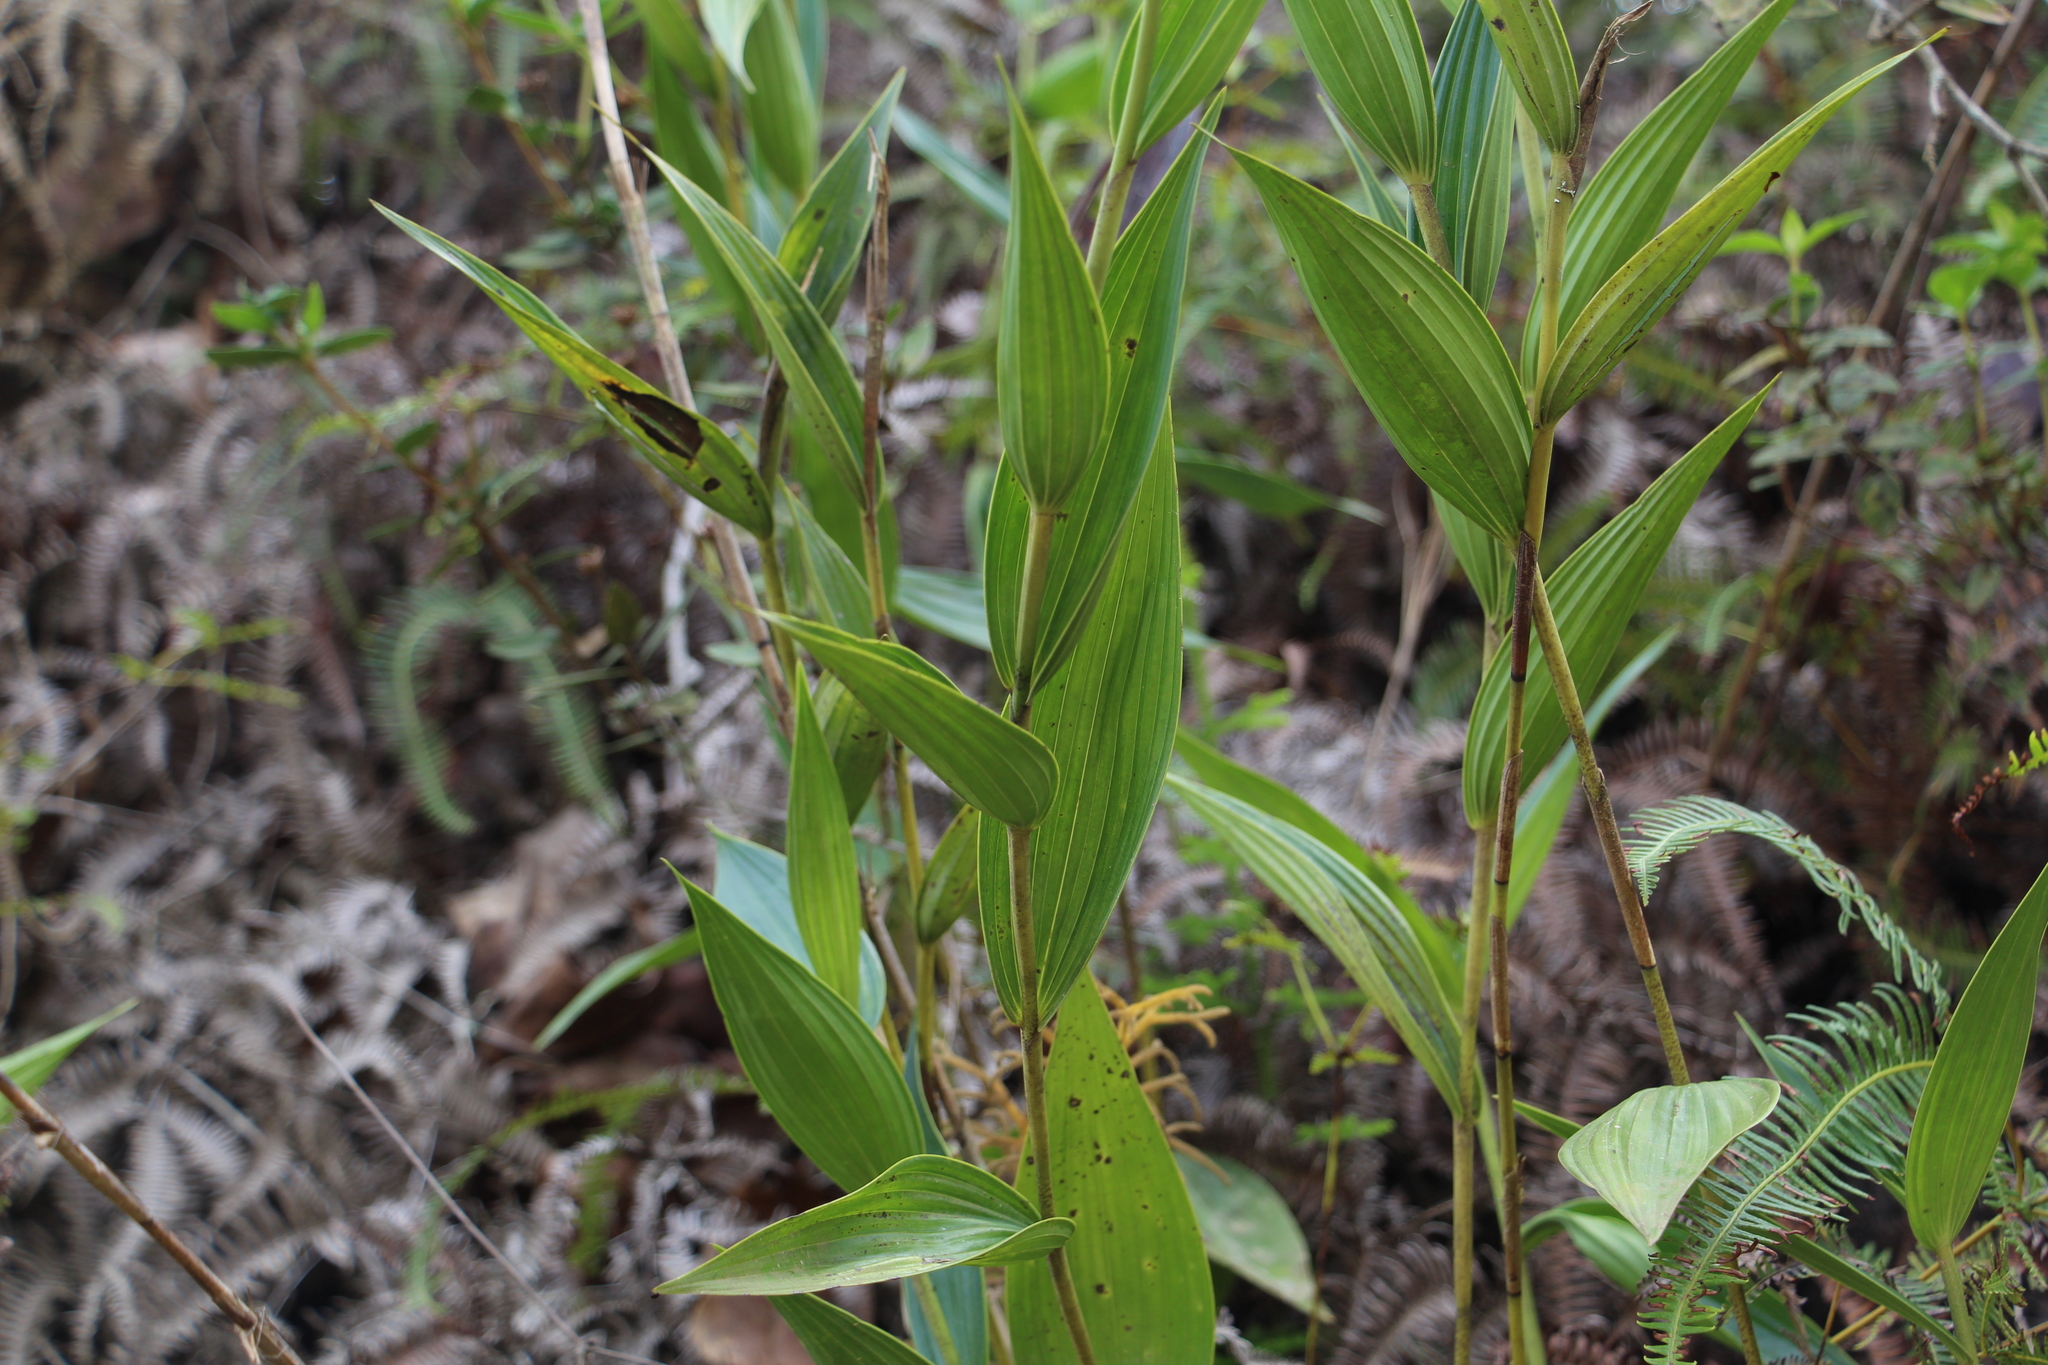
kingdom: Plantae
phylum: Tracheophyta
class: Liliopsida
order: Asparagales
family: Orchidaceae
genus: Sobralia
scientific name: Sobralia powellii
